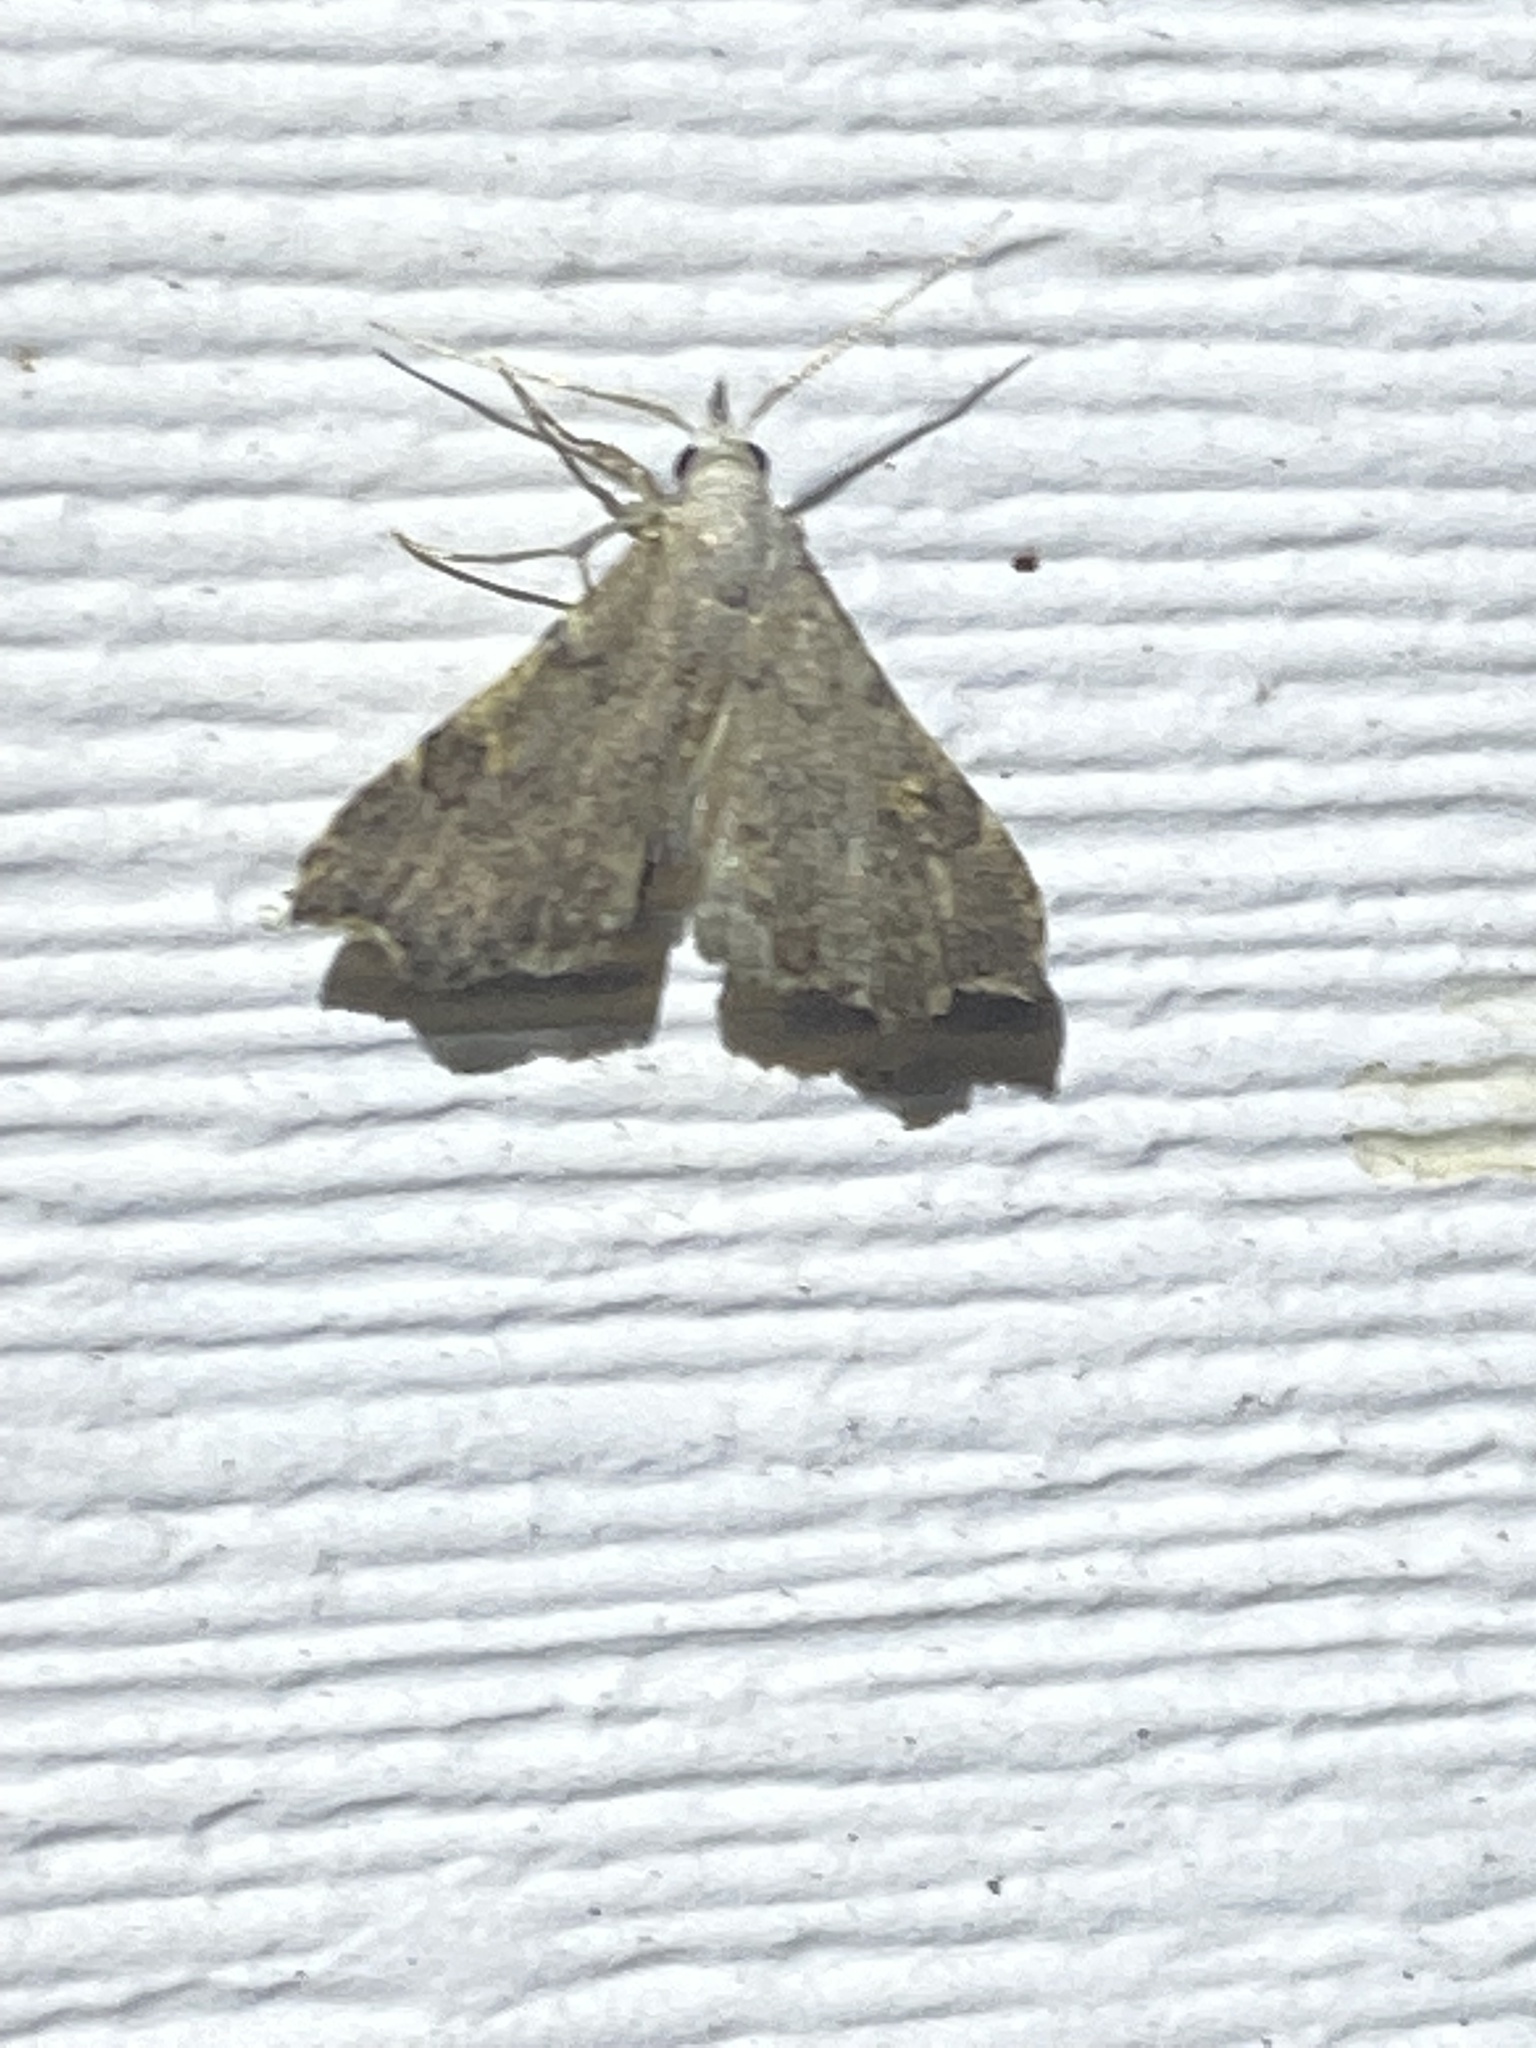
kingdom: Animalia
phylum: Arthropoda
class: Insecta
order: Lepidoptera
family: Erebidae
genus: Redectis
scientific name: Redectis pygmaea
